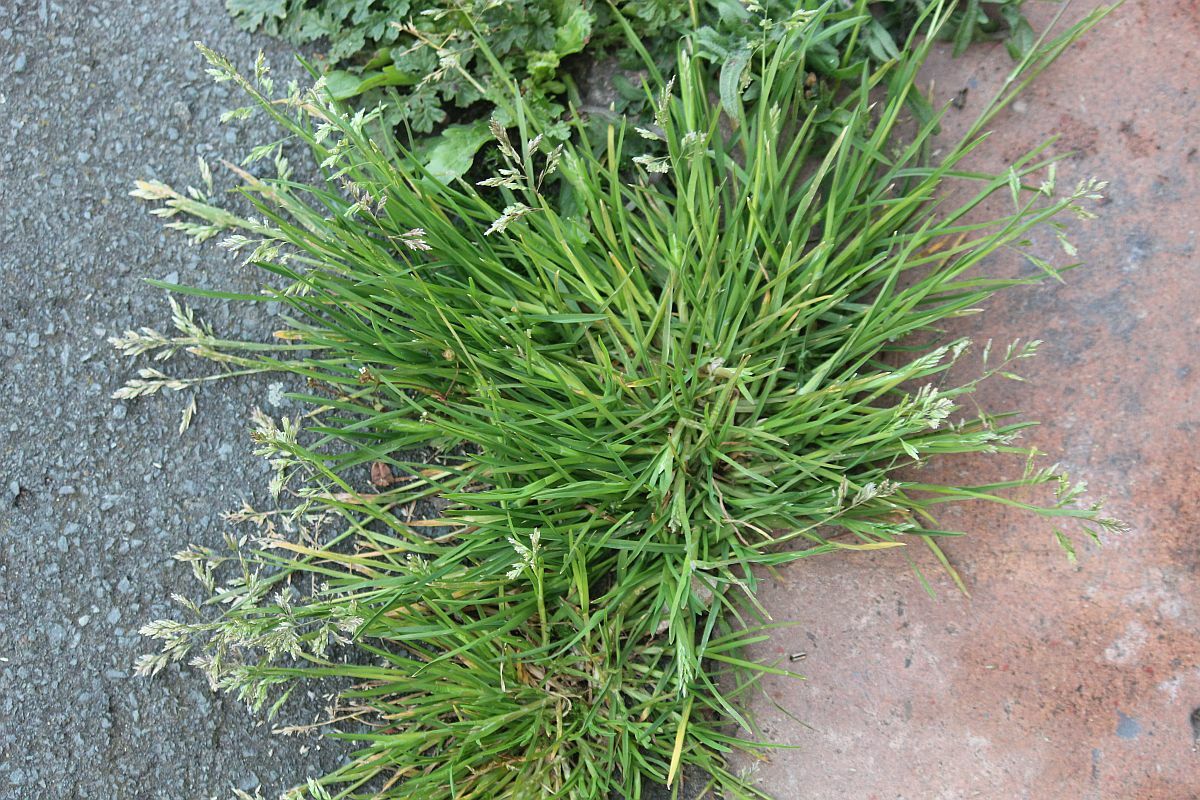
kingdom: Plantae
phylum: Tracheophyta
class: Liliopsida
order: Poales
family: Poaceae
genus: Poa
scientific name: Poa annua
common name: Annual bluegrass
